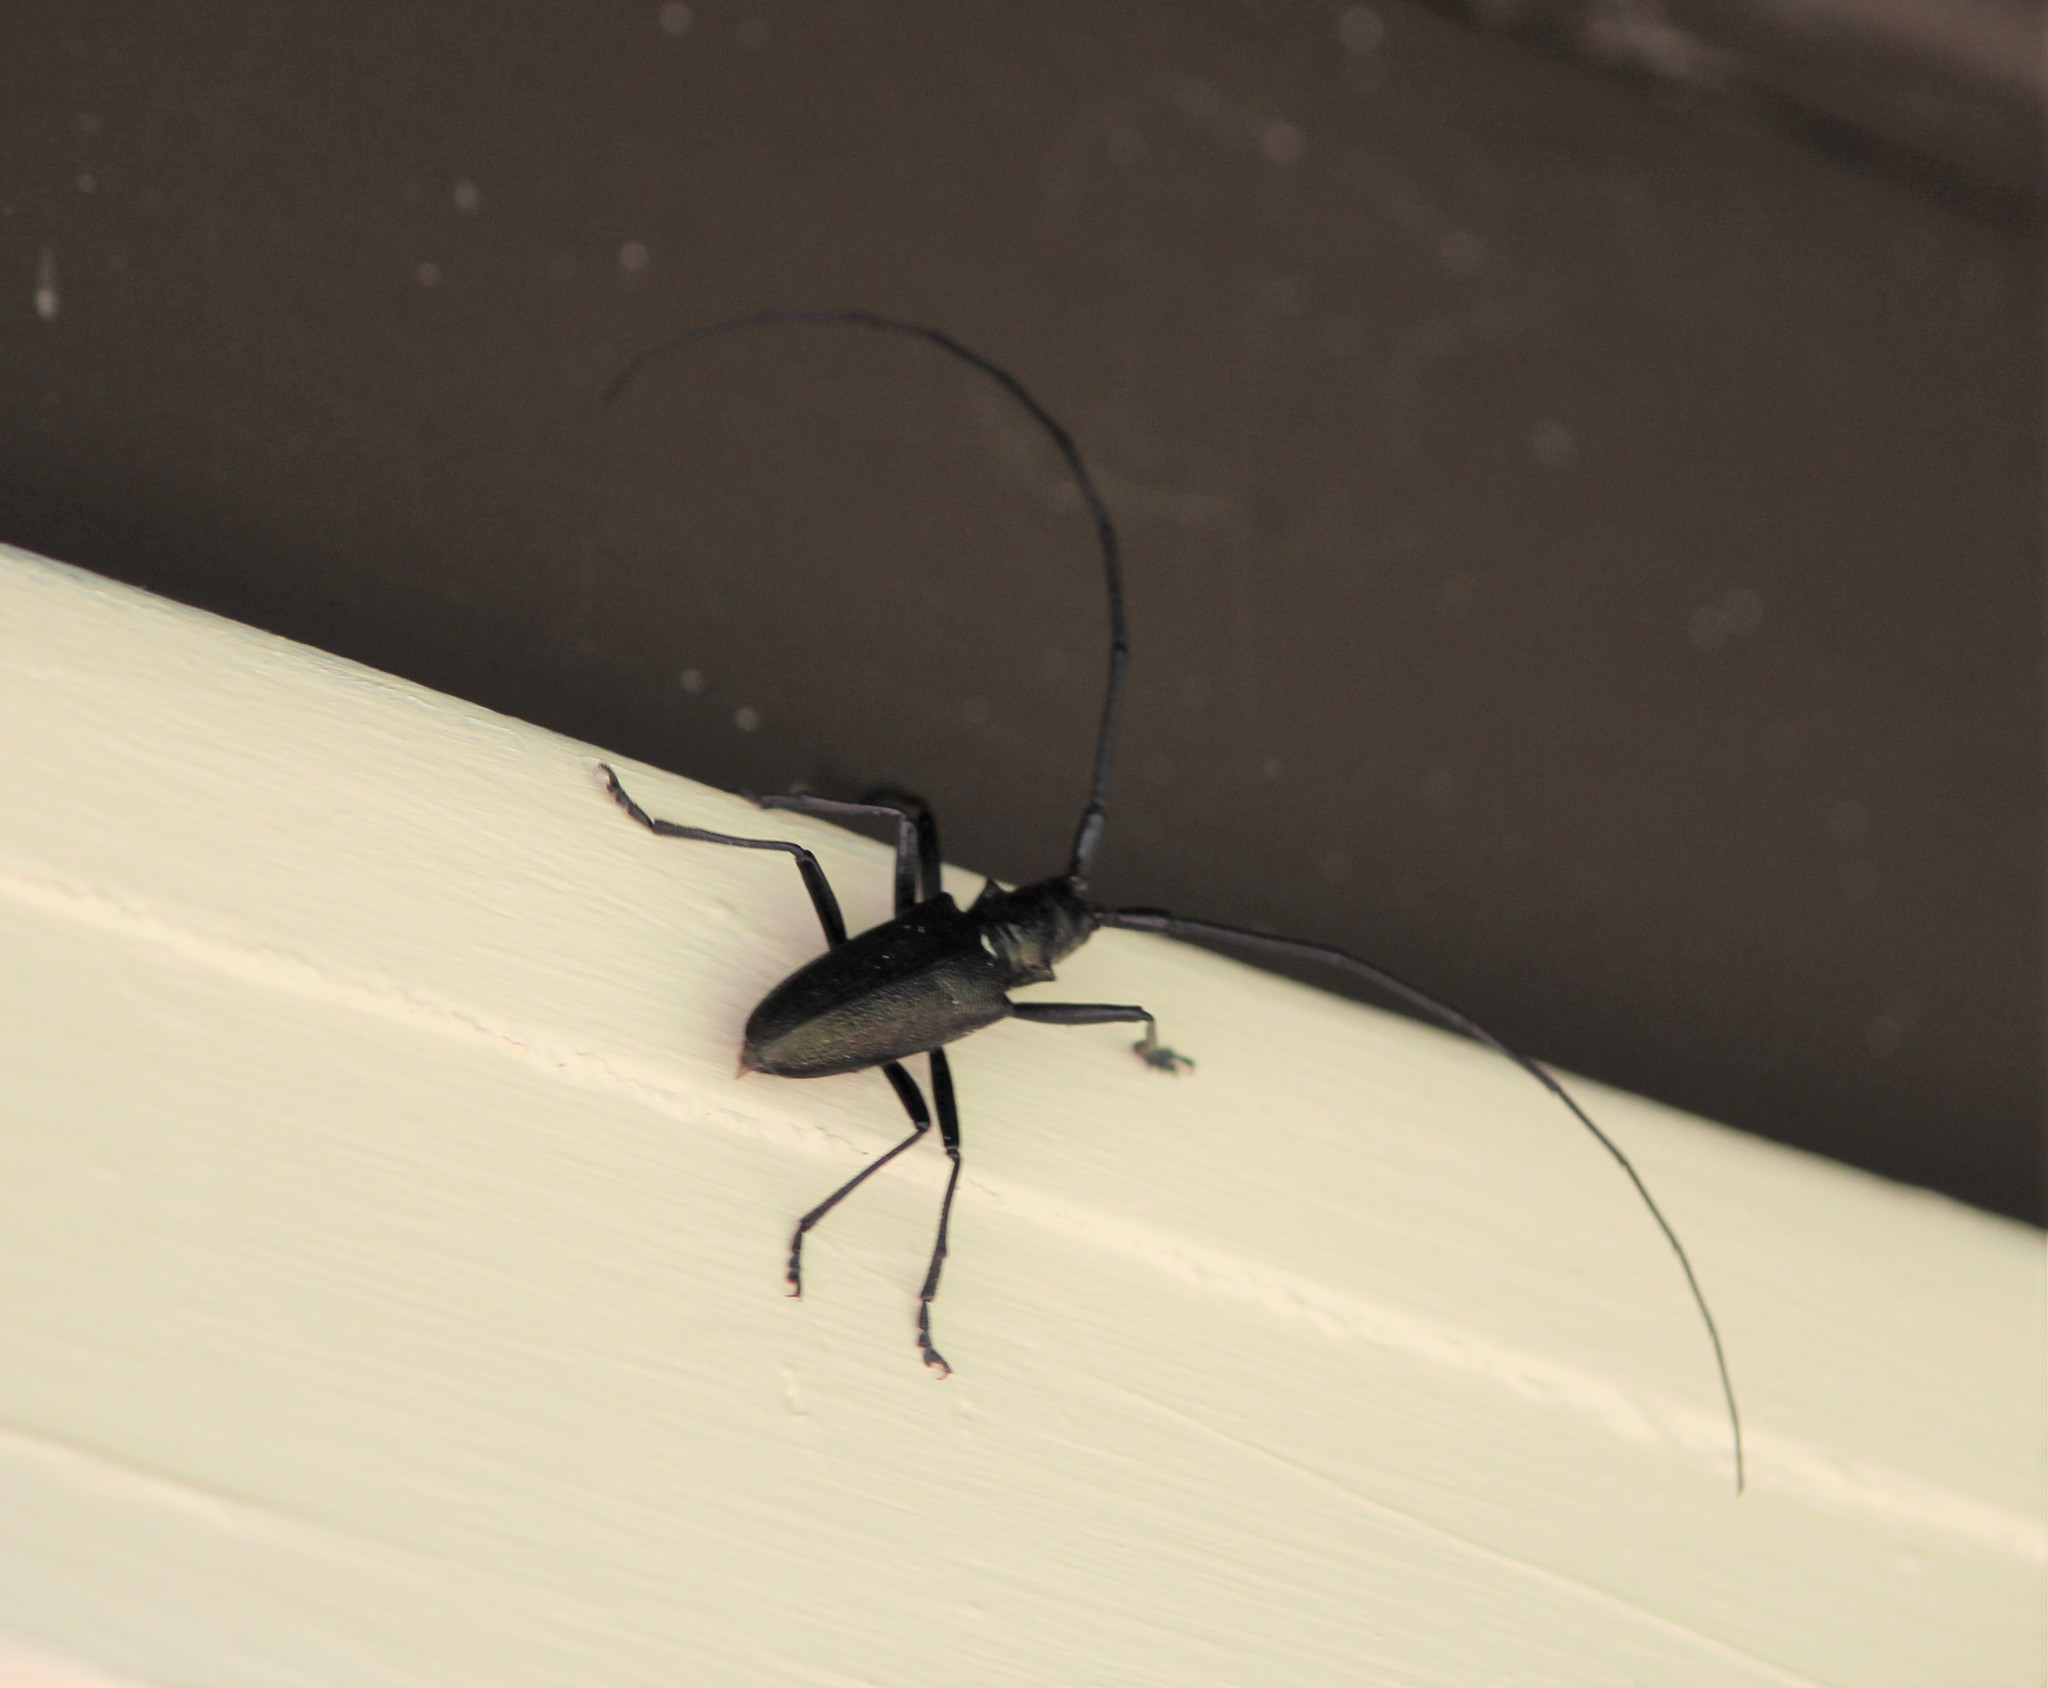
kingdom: Animalia
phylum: Arthropoda
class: Insecta
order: Coleoptera
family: Cerambycidae
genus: Monochamus
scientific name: Monochamus scutellatus
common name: White-spotted sawyer beetle
